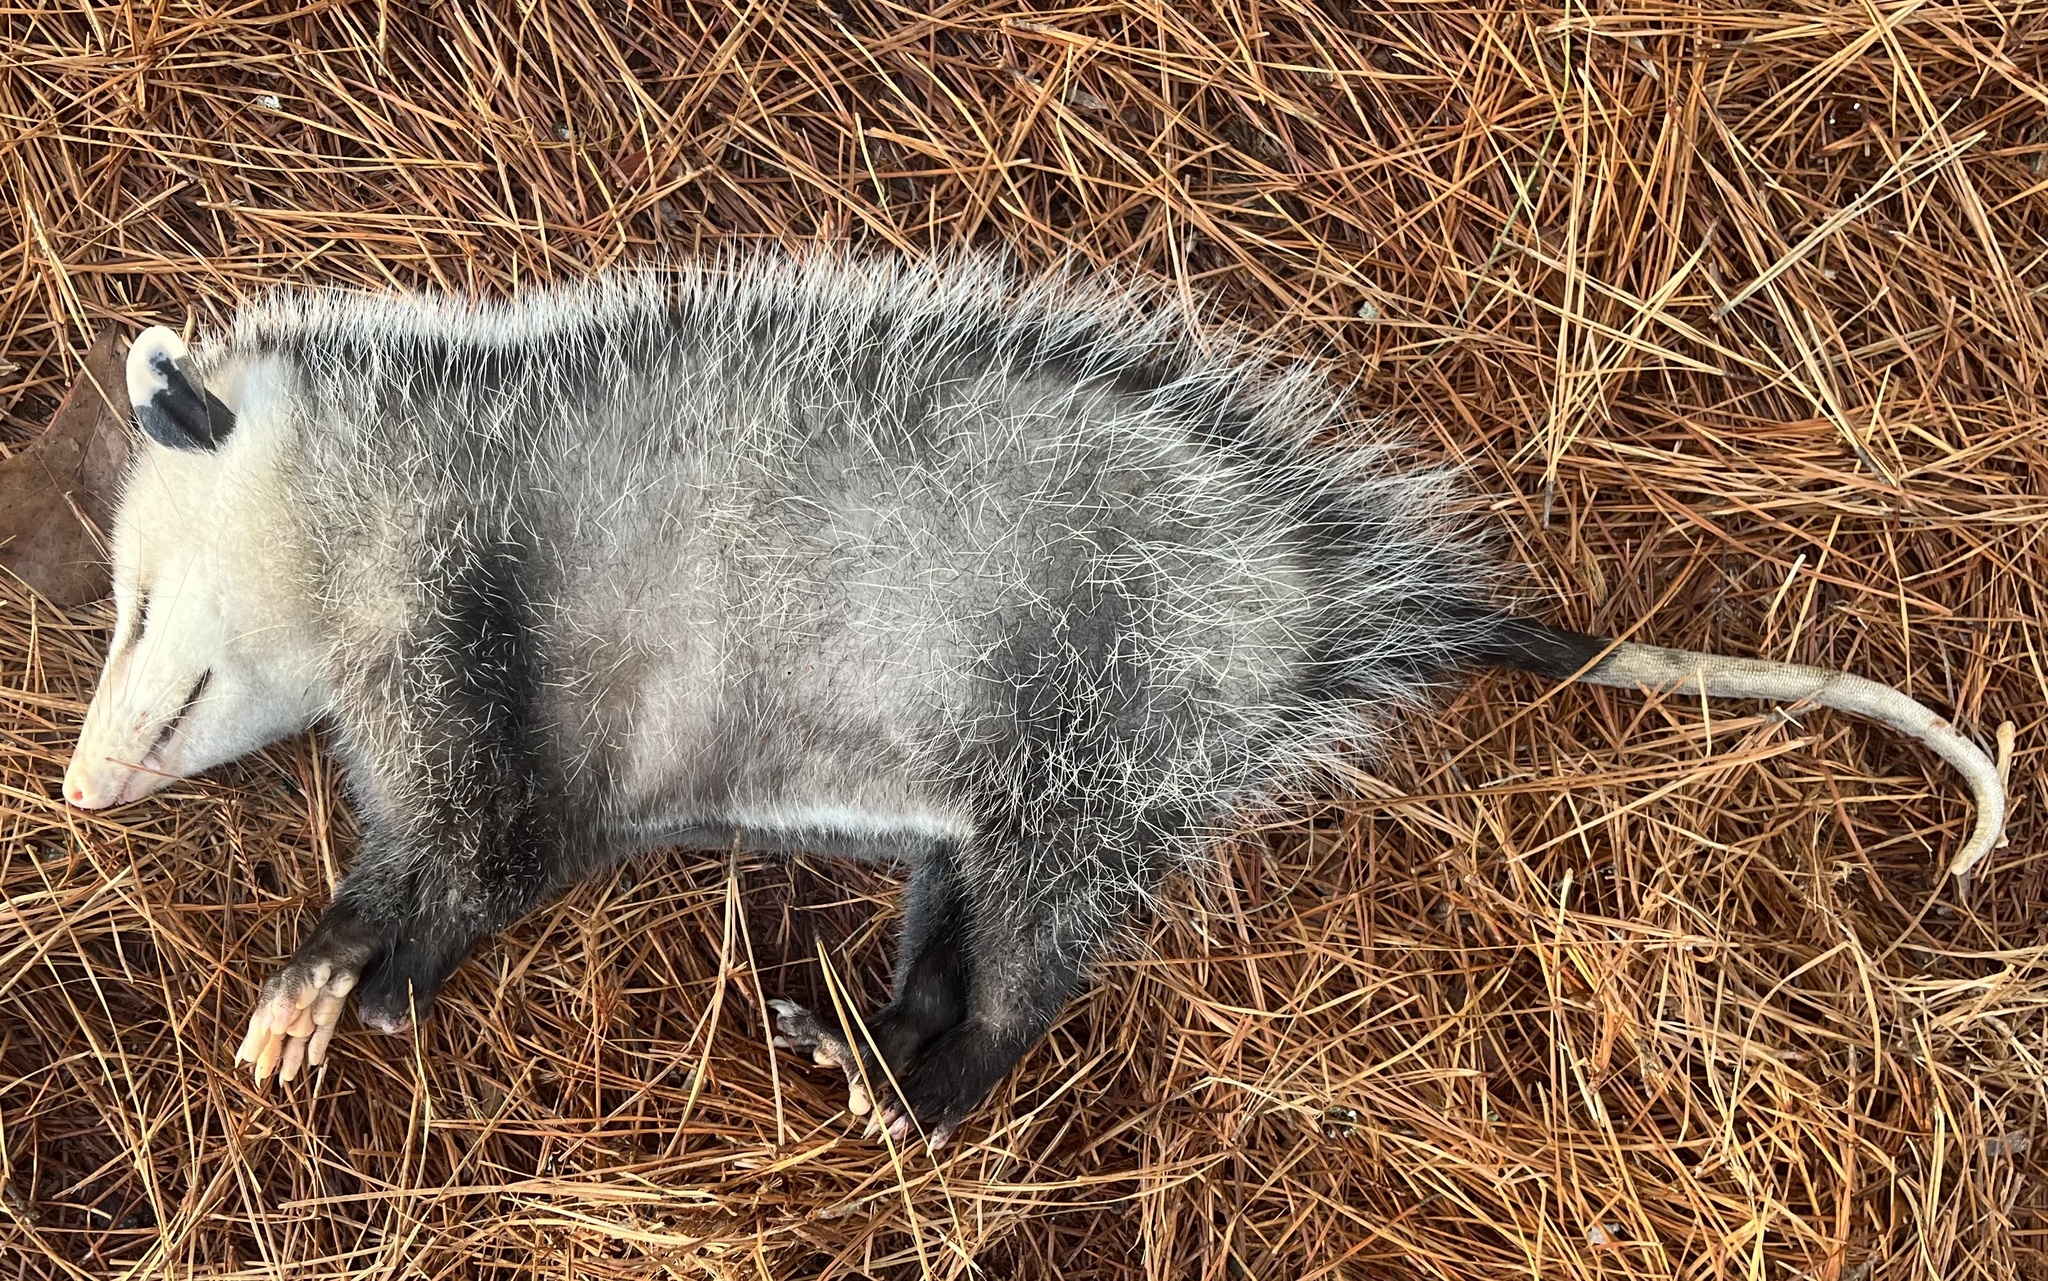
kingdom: Animalia
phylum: Chordata
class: Mammalia
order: Didelphimorphia
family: Didelphidae
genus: Didelphis
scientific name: Didelphis virginiana
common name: Virginia opossum
